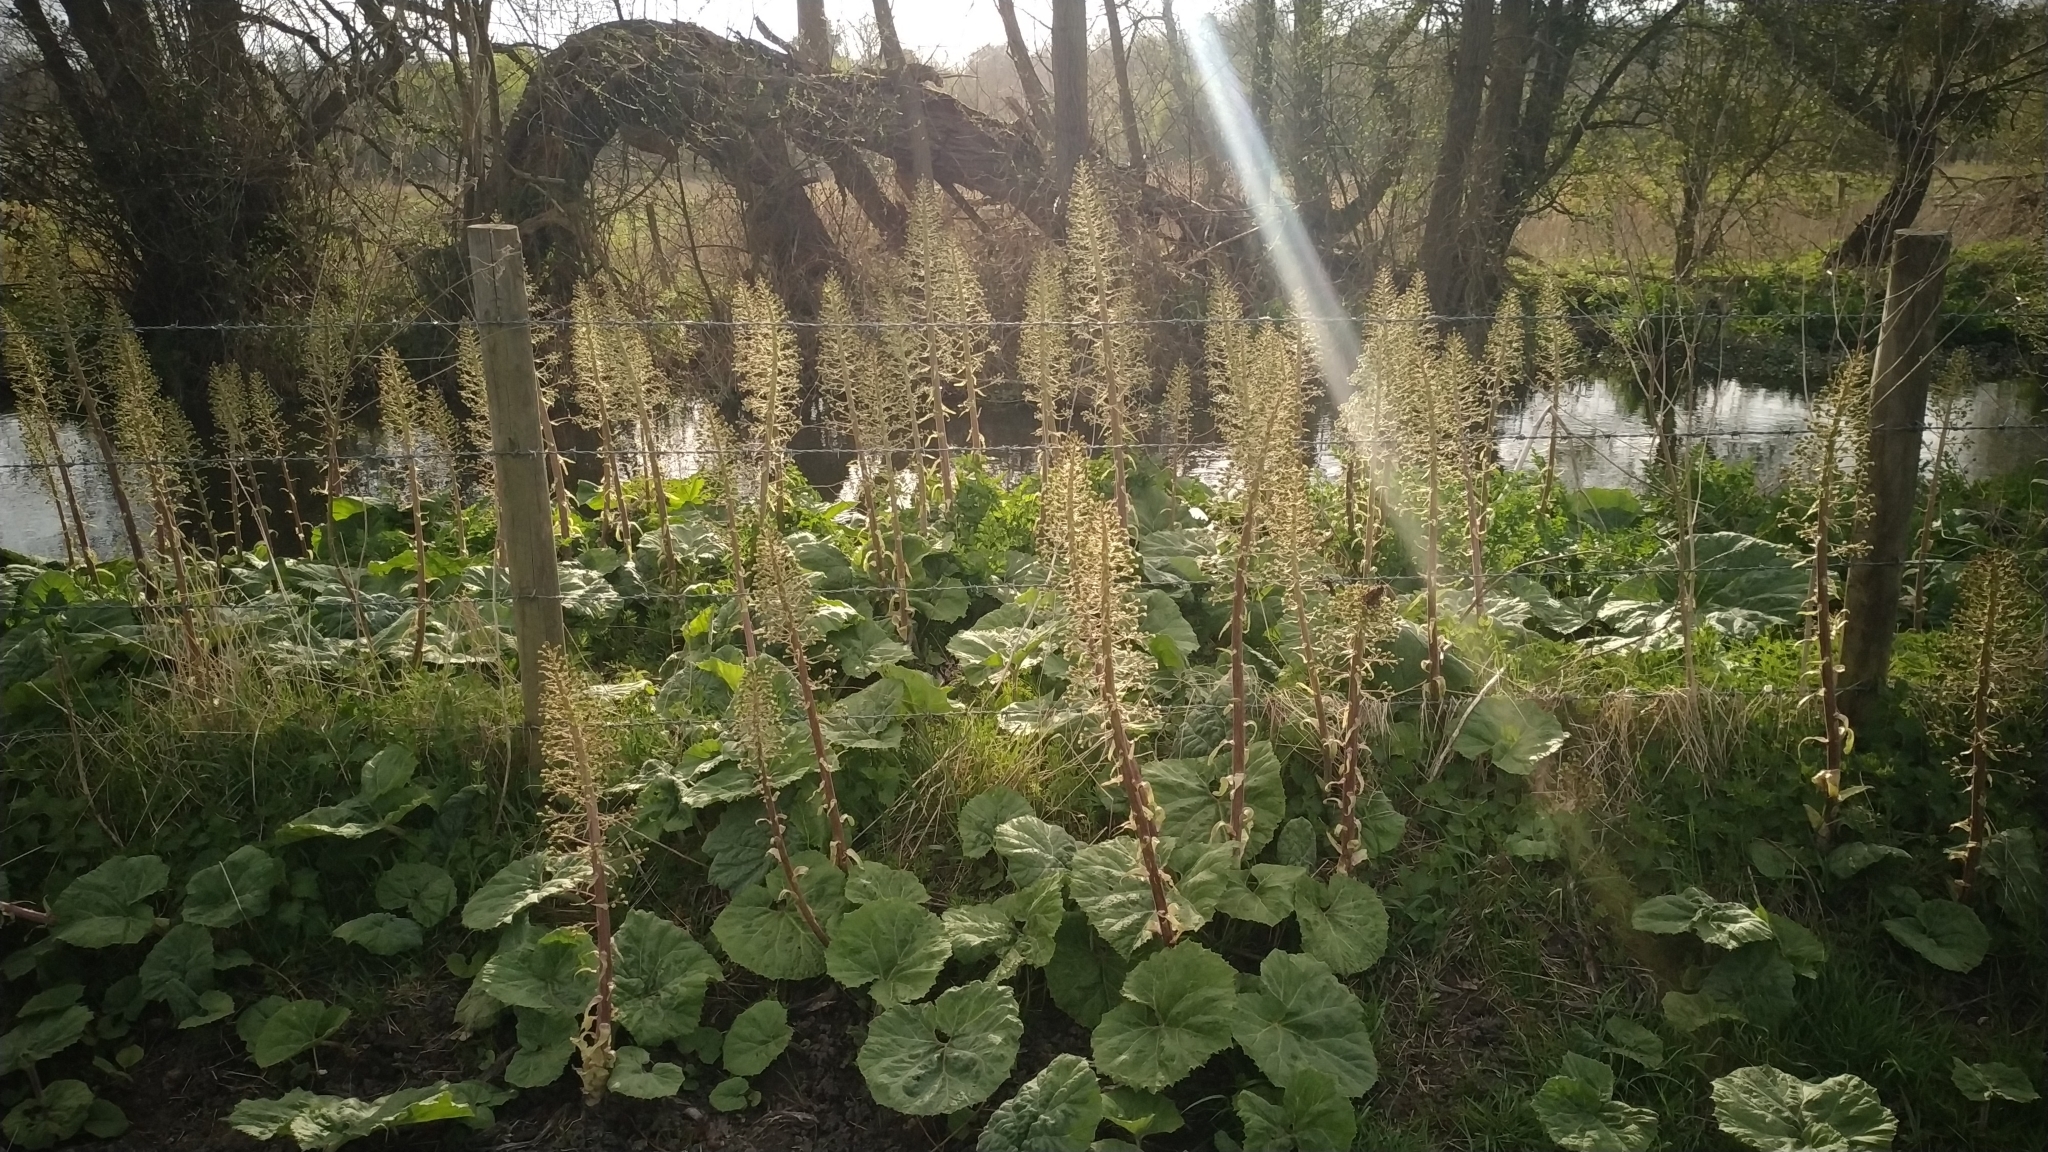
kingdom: Plantae
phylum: Tracheophyta
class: Magnoliopsida
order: Asterales
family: Asteraceae
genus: Petasites
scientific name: Petasites hybridus
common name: Butterbur
